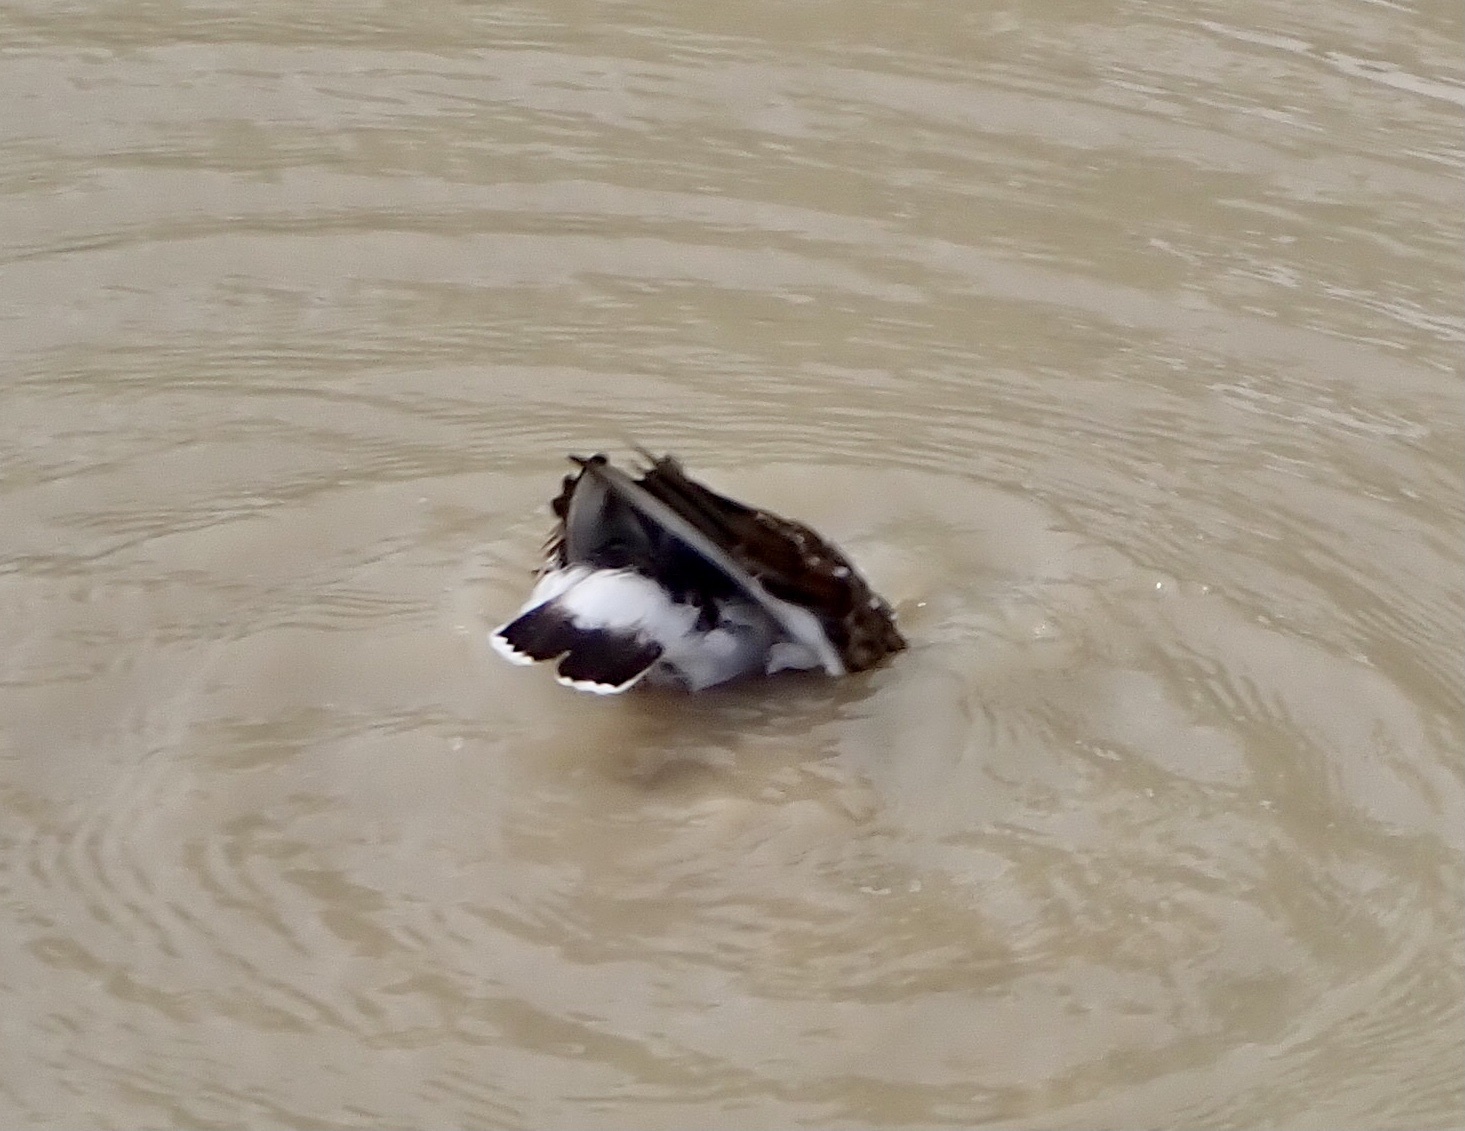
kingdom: Animalia
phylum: Chordata
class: Aves
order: Charadriiformes
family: Scolopacidae
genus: Arenaria
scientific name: Arenaria interpres
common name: Ruddy turnstone
